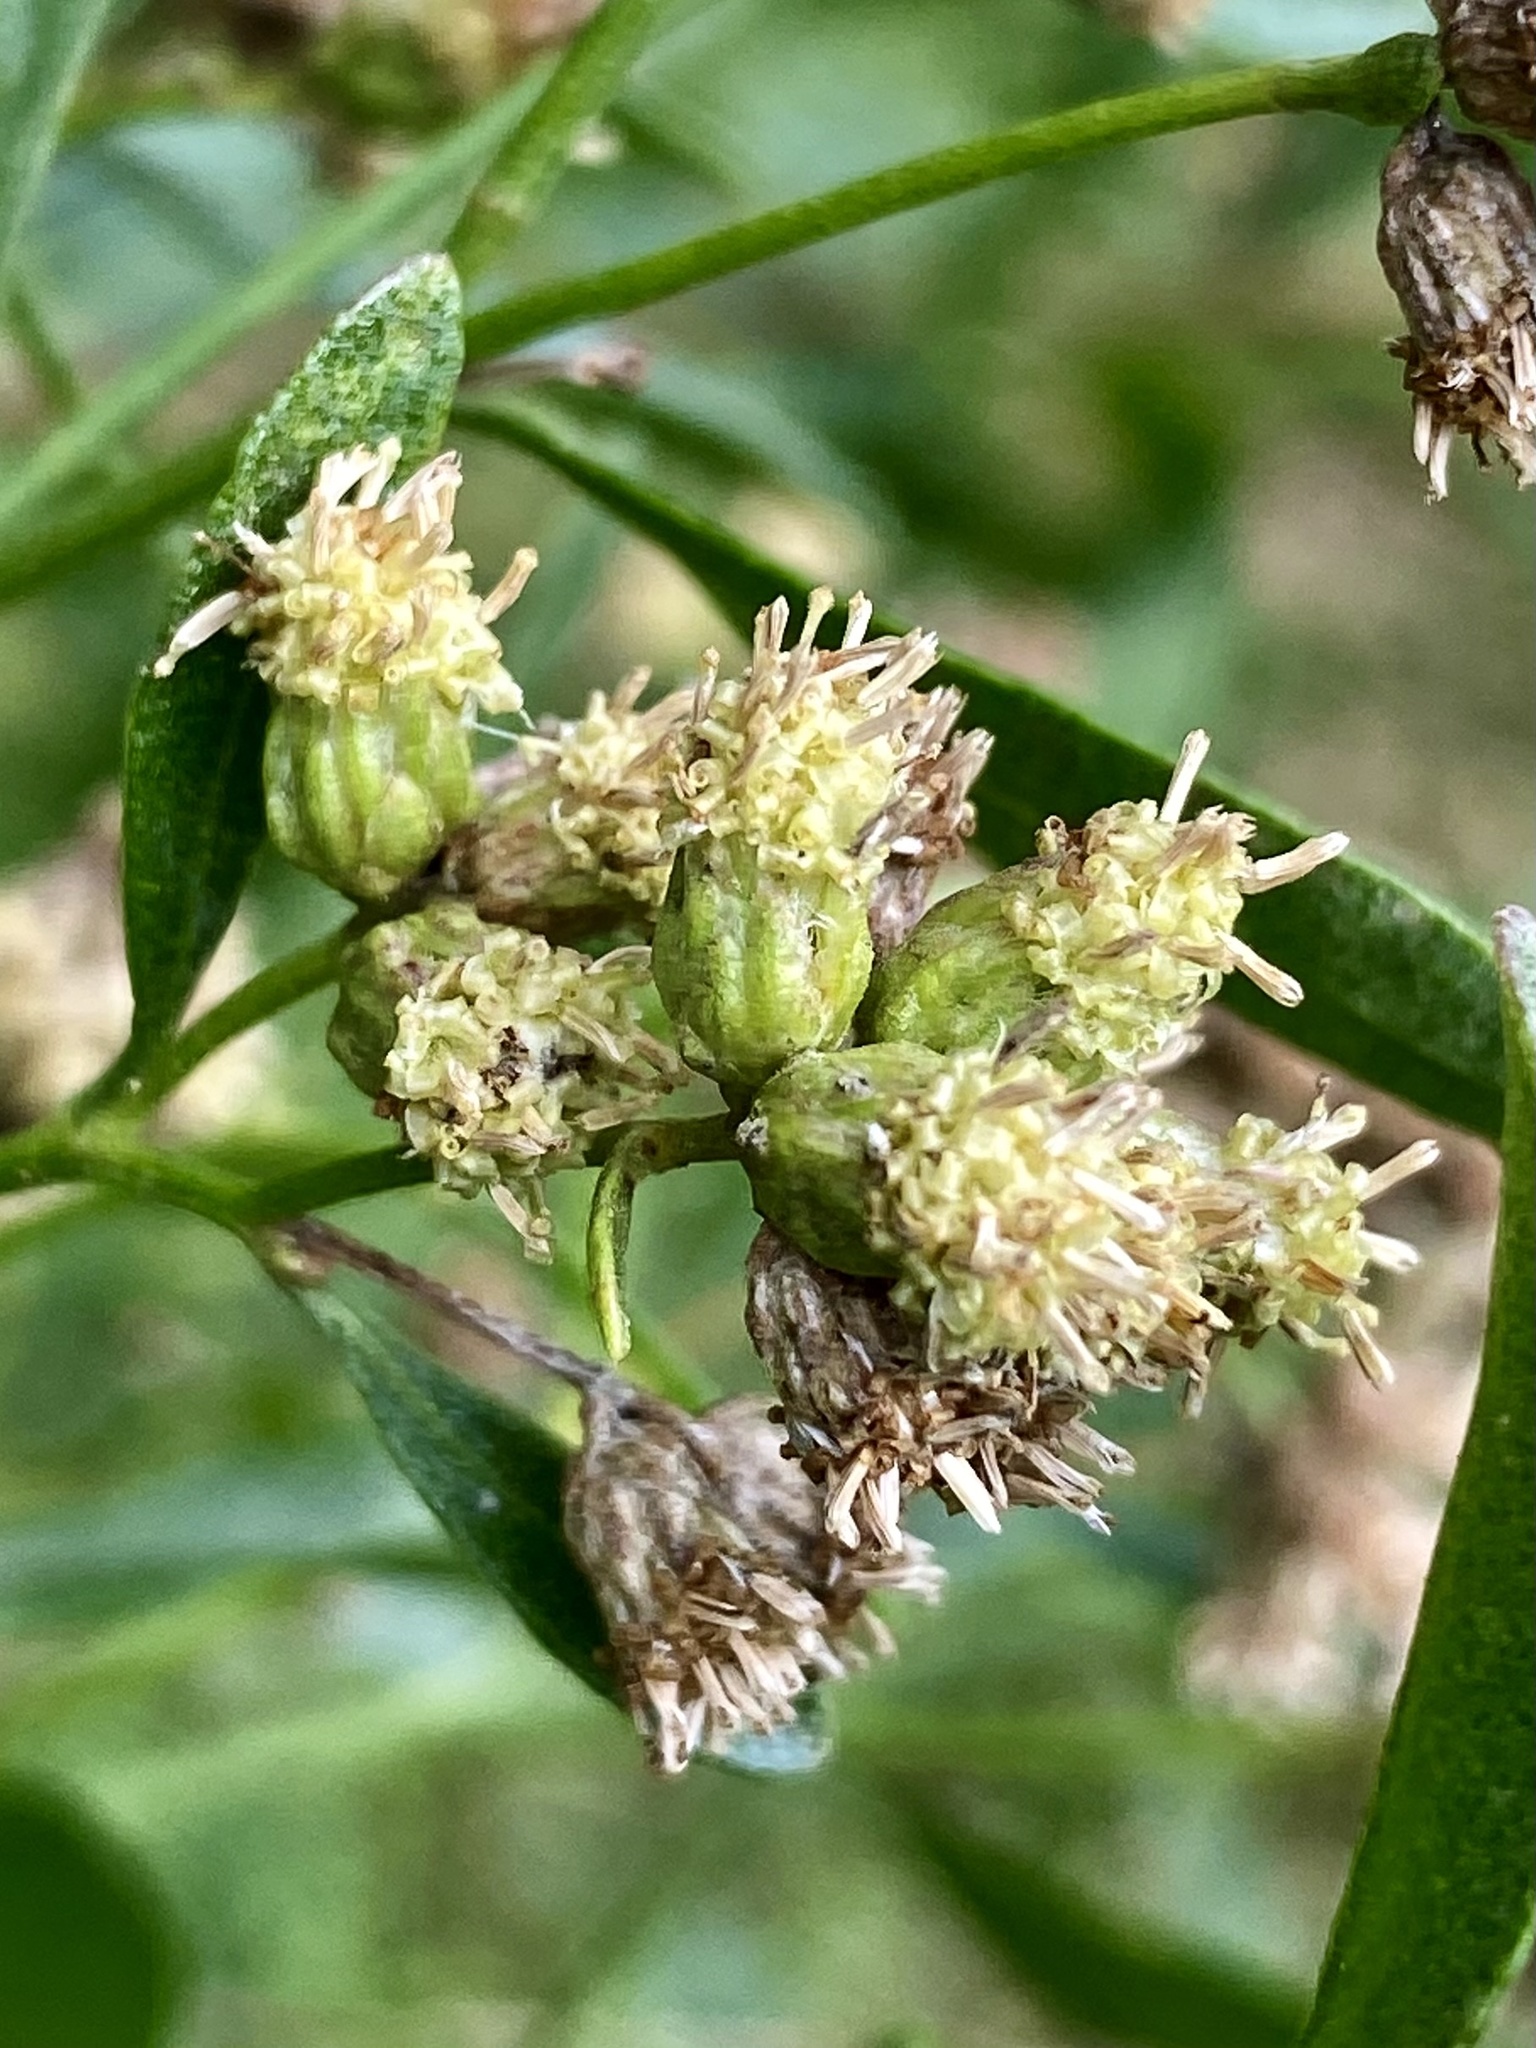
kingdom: Plantae
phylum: Tracheophyta
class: Magnoliopsida
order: Asterales
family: Asteraceae
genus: Baccharis
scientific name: Baccharis halimifolia
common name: Eastern baccharis
